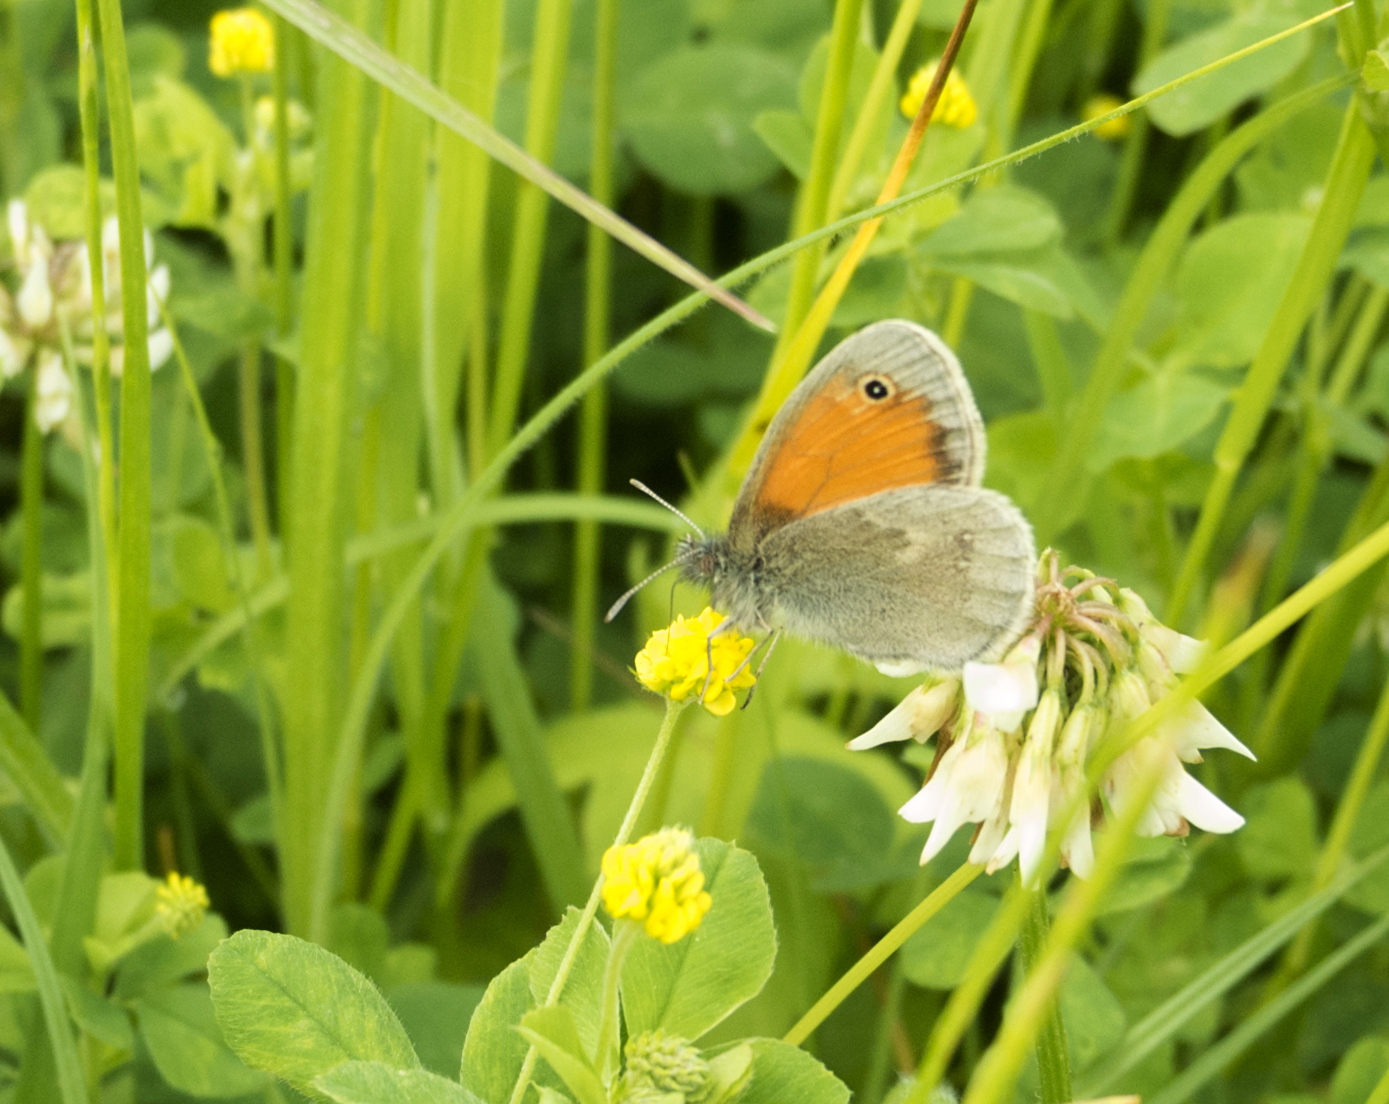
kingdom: Animalia
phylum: Arthropoda
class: Insecta
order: Lepidoptera
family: Nymphalidae
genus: Coenonympha
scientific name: Coenonympha pamphilus
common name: Small heath
